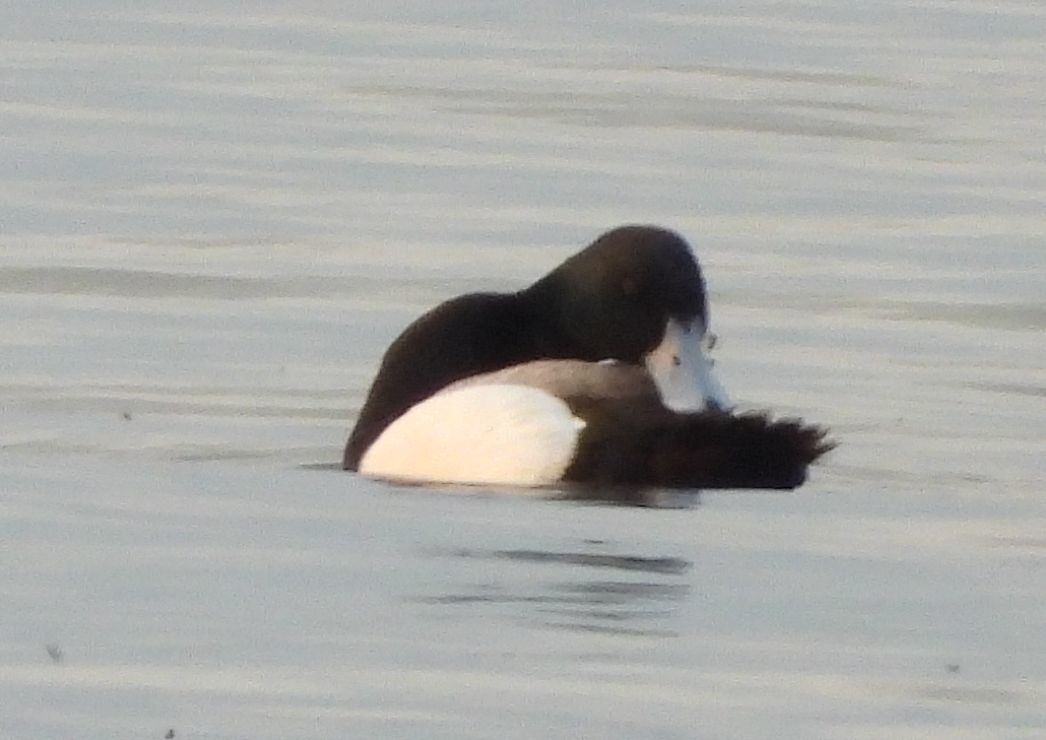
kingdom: Animalia
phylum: Chordata
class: Aves
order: Anseriformes
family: Anatidae
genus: Aythya
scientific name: Aythya marila
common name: Greater scaup
